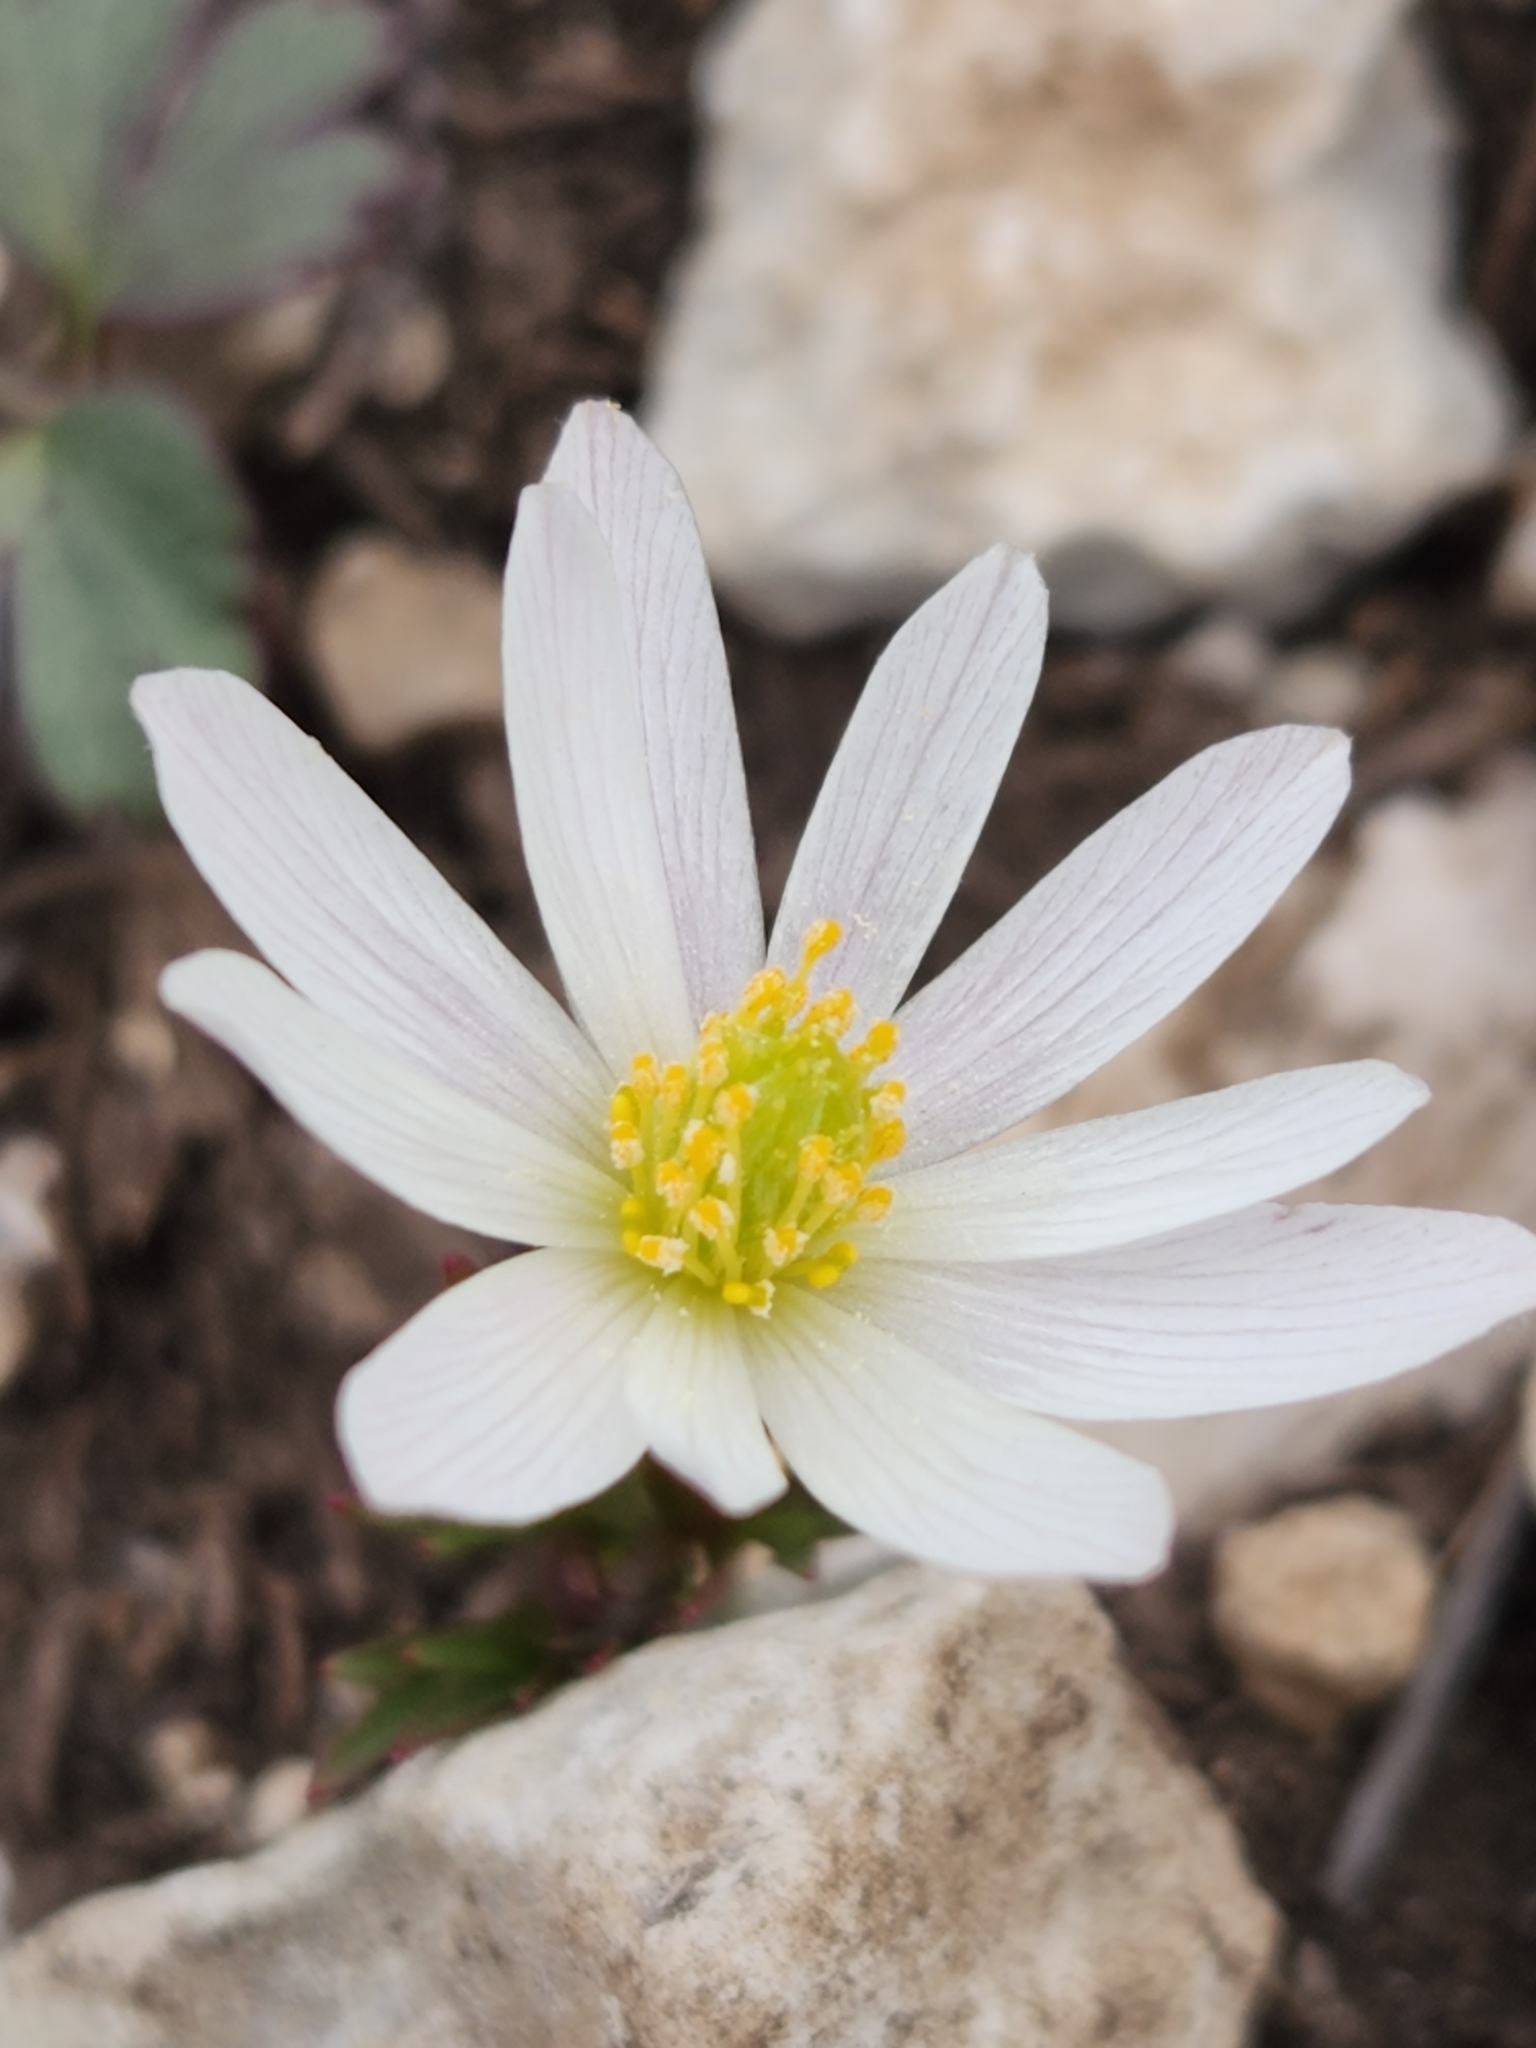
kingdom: Plantae
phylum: Tracheophyta
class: Magnoliopsida
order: Ranunculales
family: Ranunculaceae
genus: Anemone
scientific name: Anemone edwardsiana
